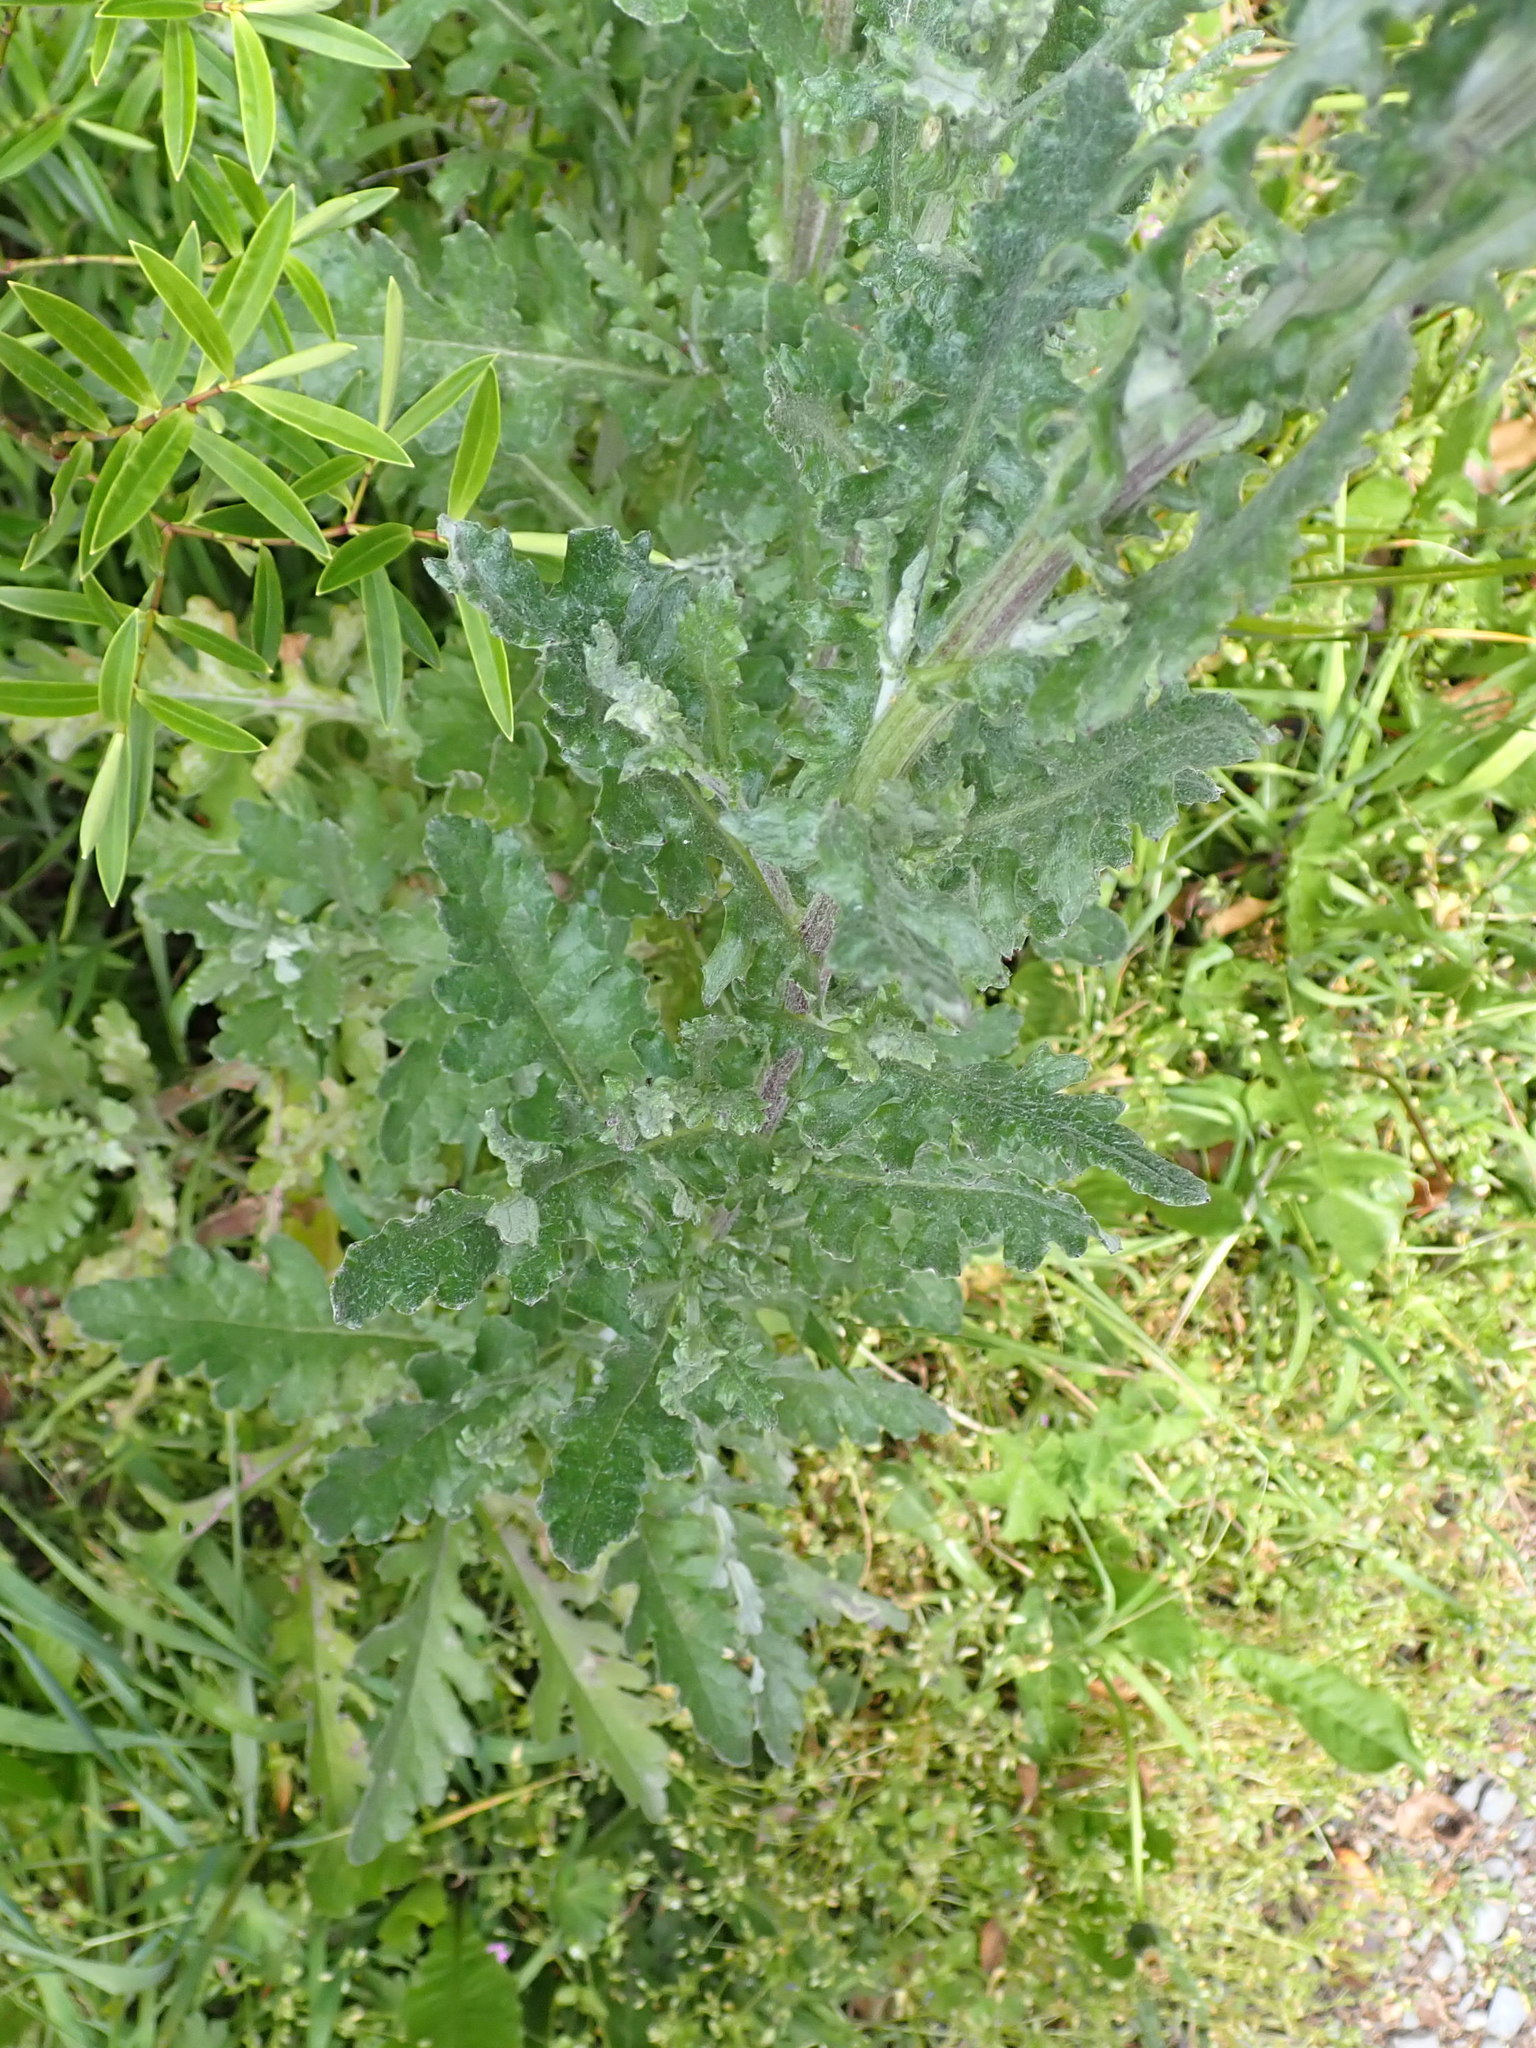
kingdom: Plantae
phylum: Tracheophyta
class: Magnoliopsida
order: Asterales
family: Asteraceae
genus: Senecio
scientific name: Senecio glomeratus
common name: Cutleaf burnweed
